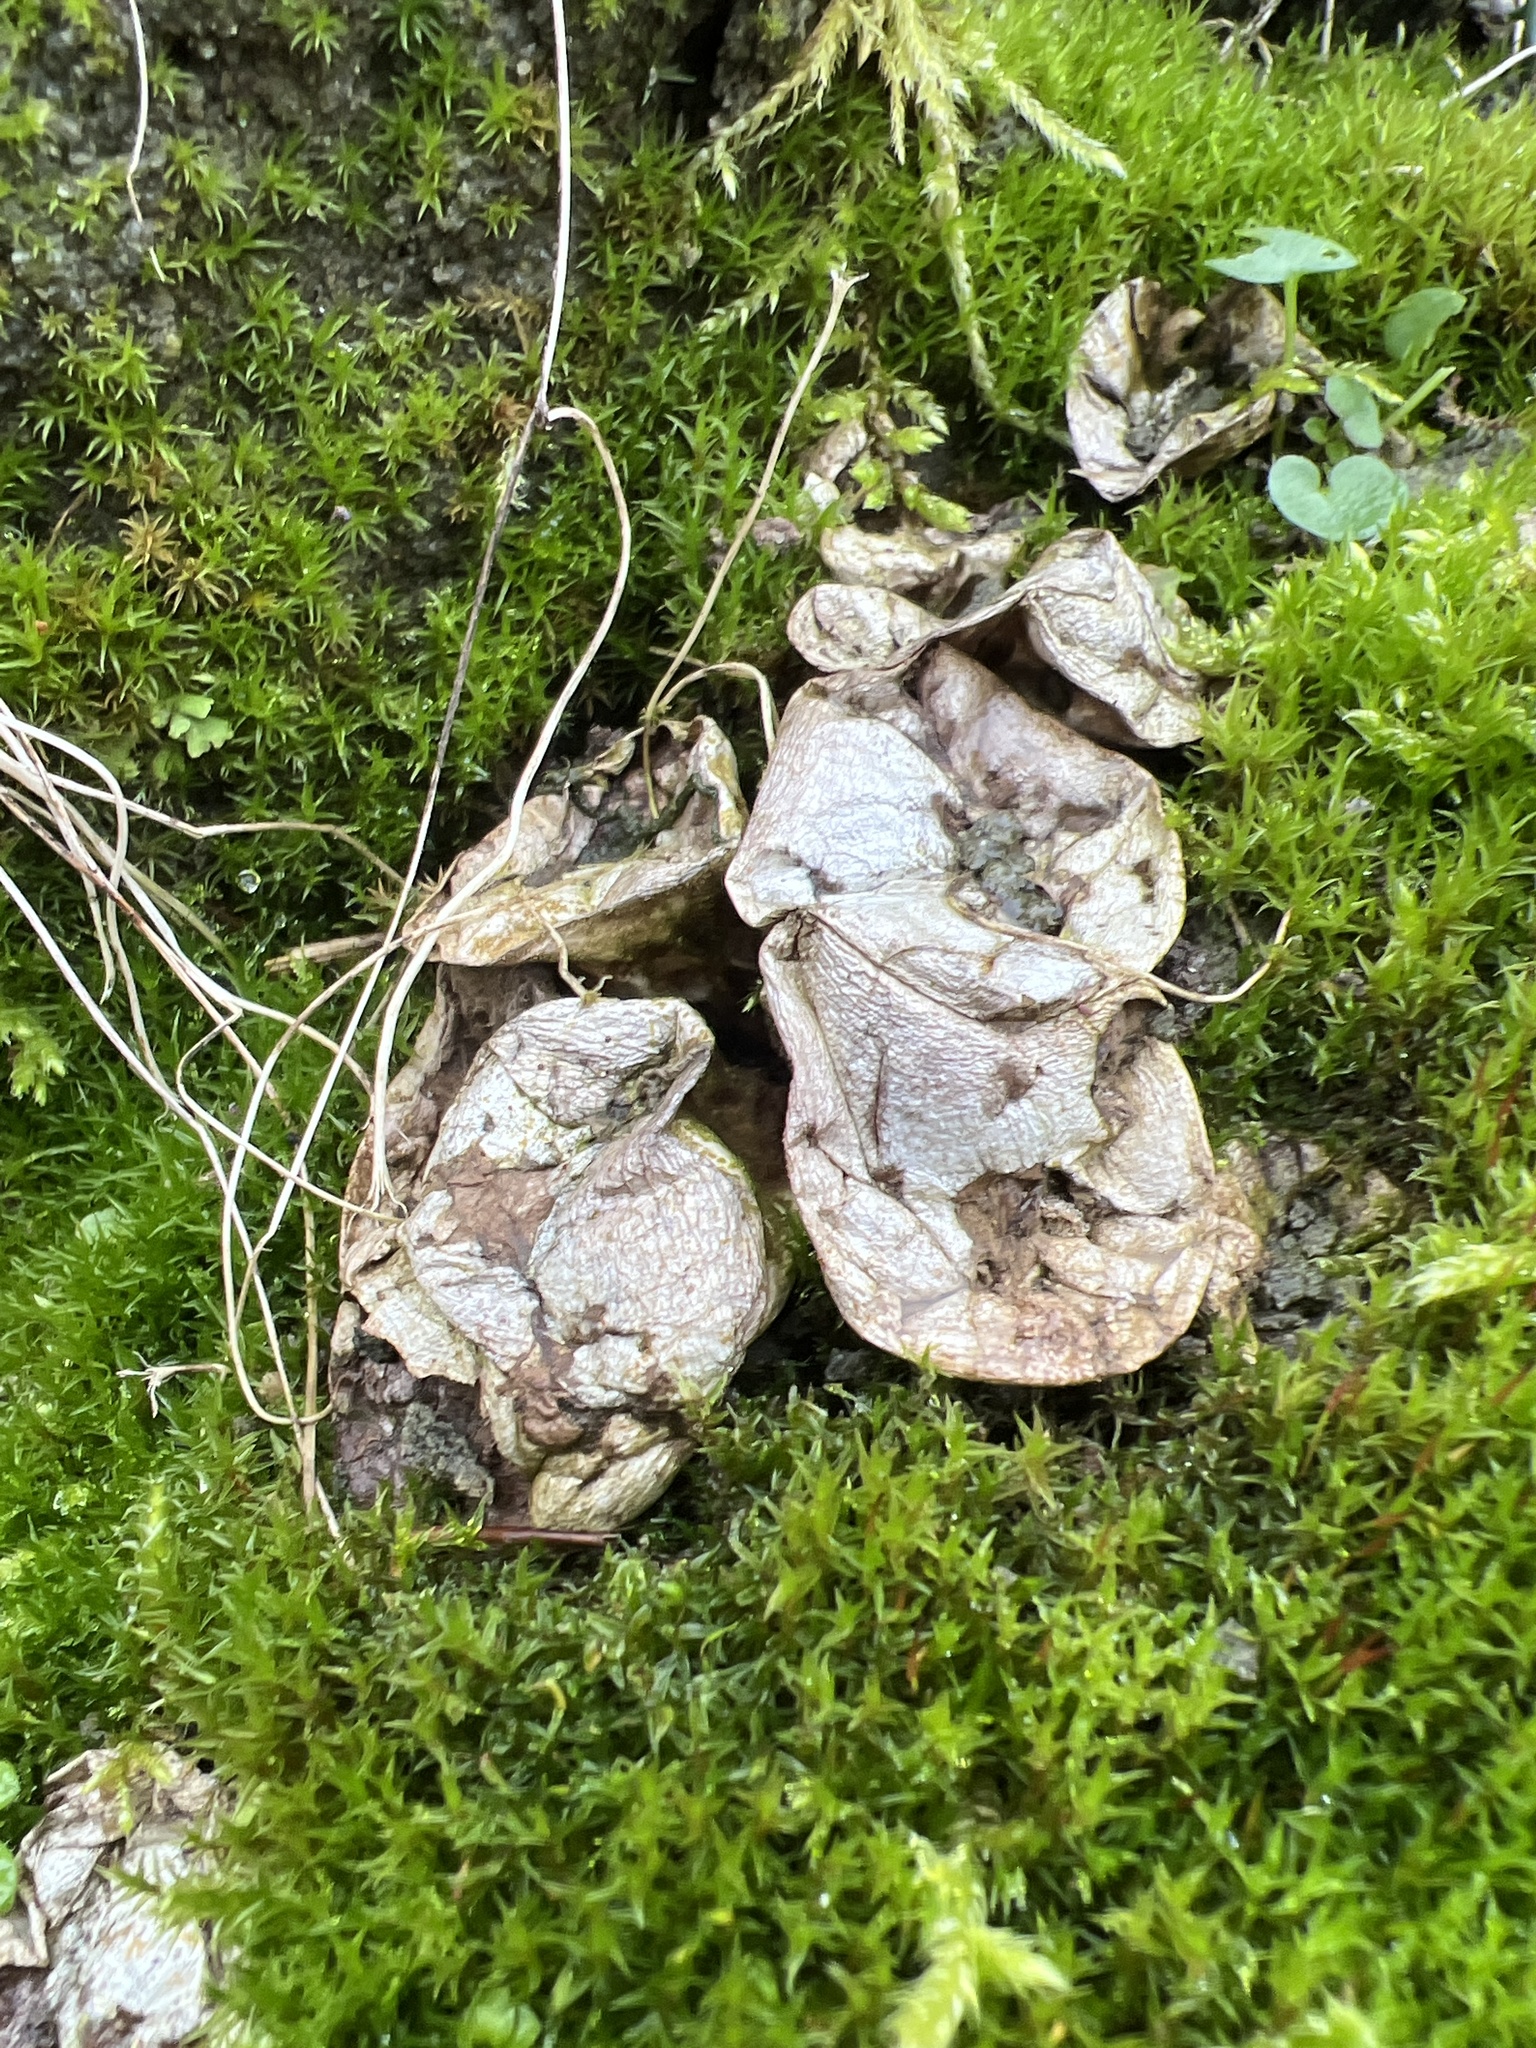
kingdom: Fungi
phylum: Basidiomycota
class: Agaricomycetes
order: Agaricales
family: Lycoperdaceae
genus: Apioperdon
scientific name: Apioperdon pyriforme
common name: Pear-shaped puffball
